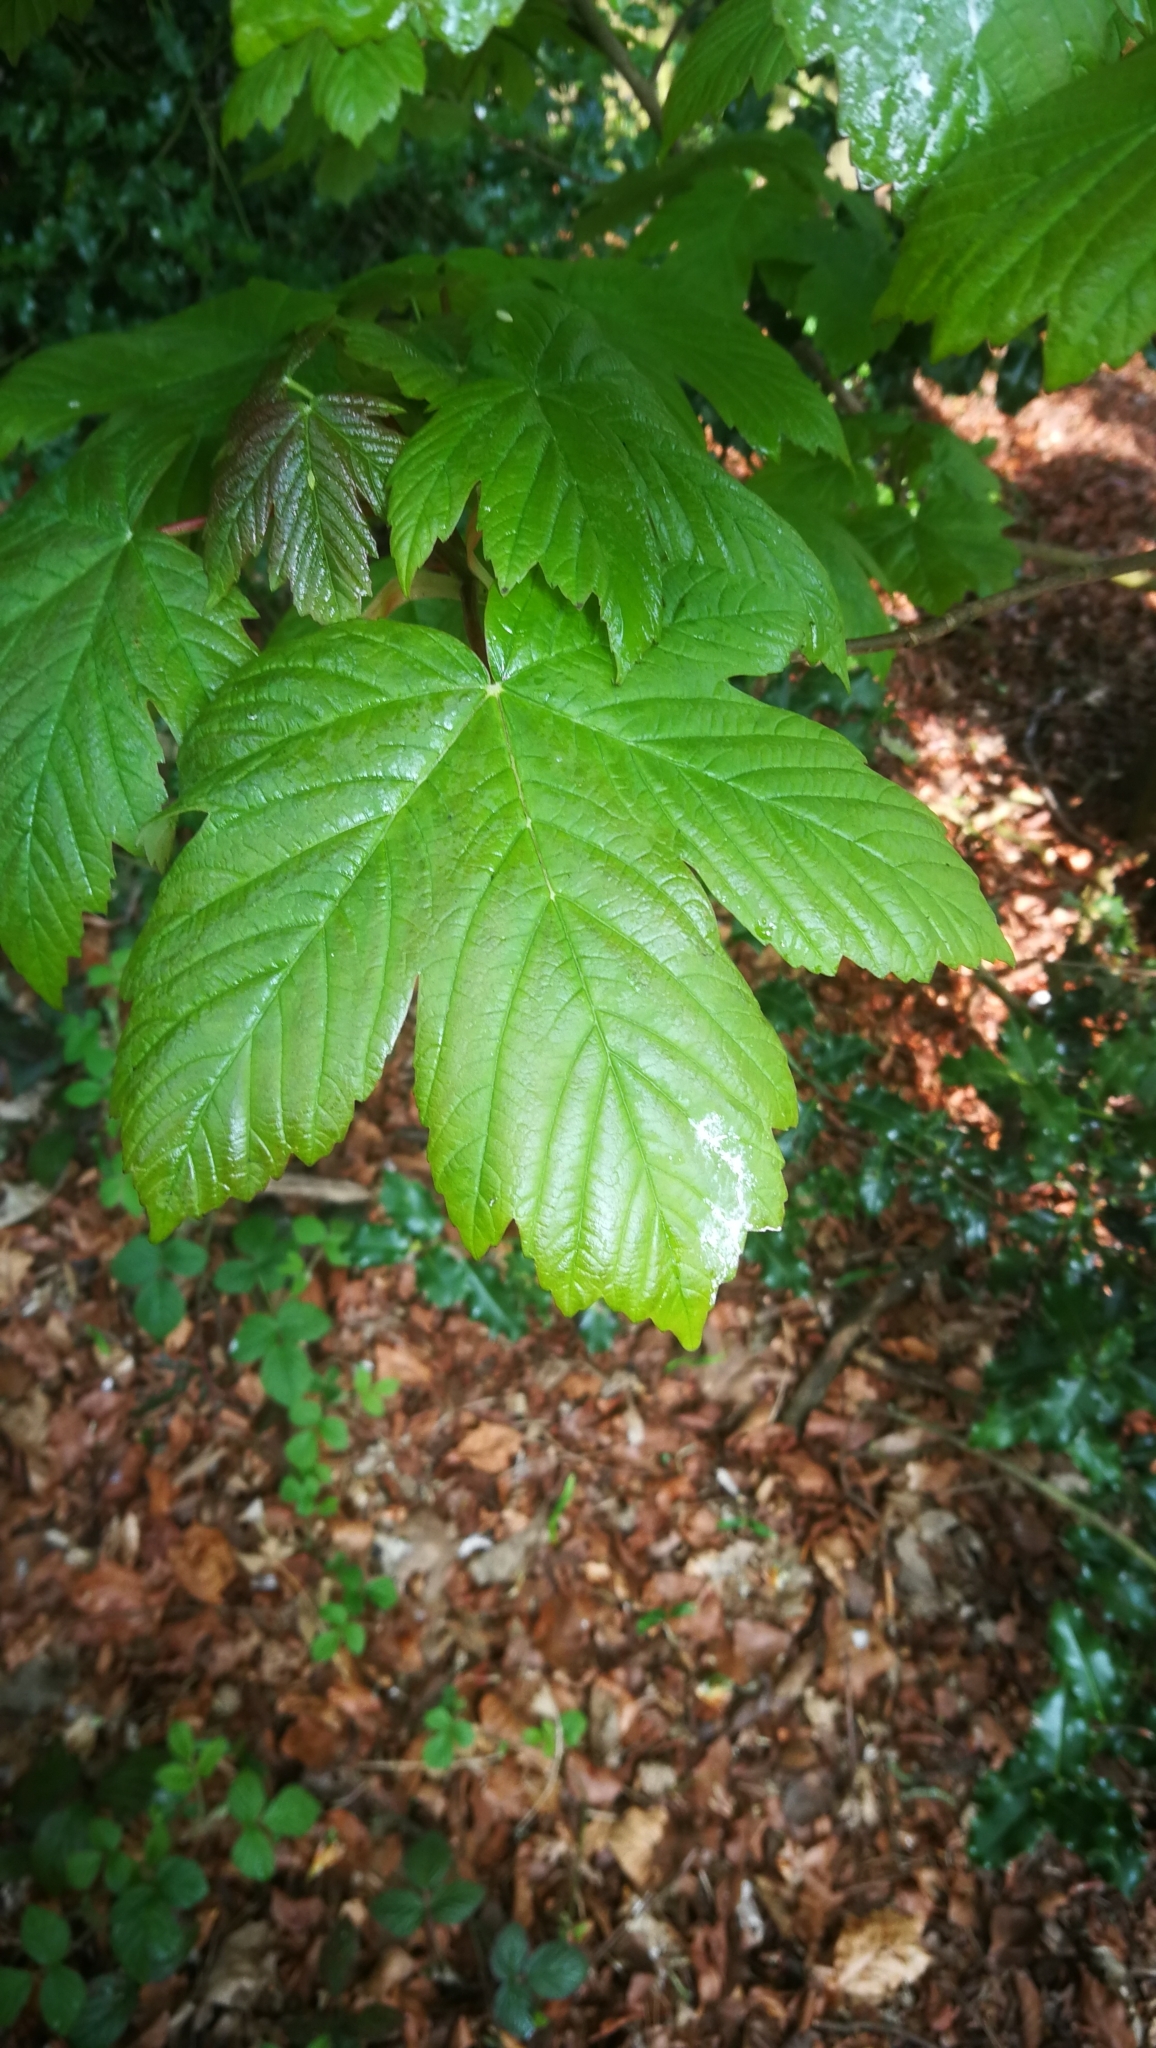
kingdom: Plantae
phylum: Tracheophyta
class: Magnoliopsida
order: Sapindales
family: Sapindaceae
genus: Acer
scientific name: Acer pseudoplatanus
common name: Sycamore
